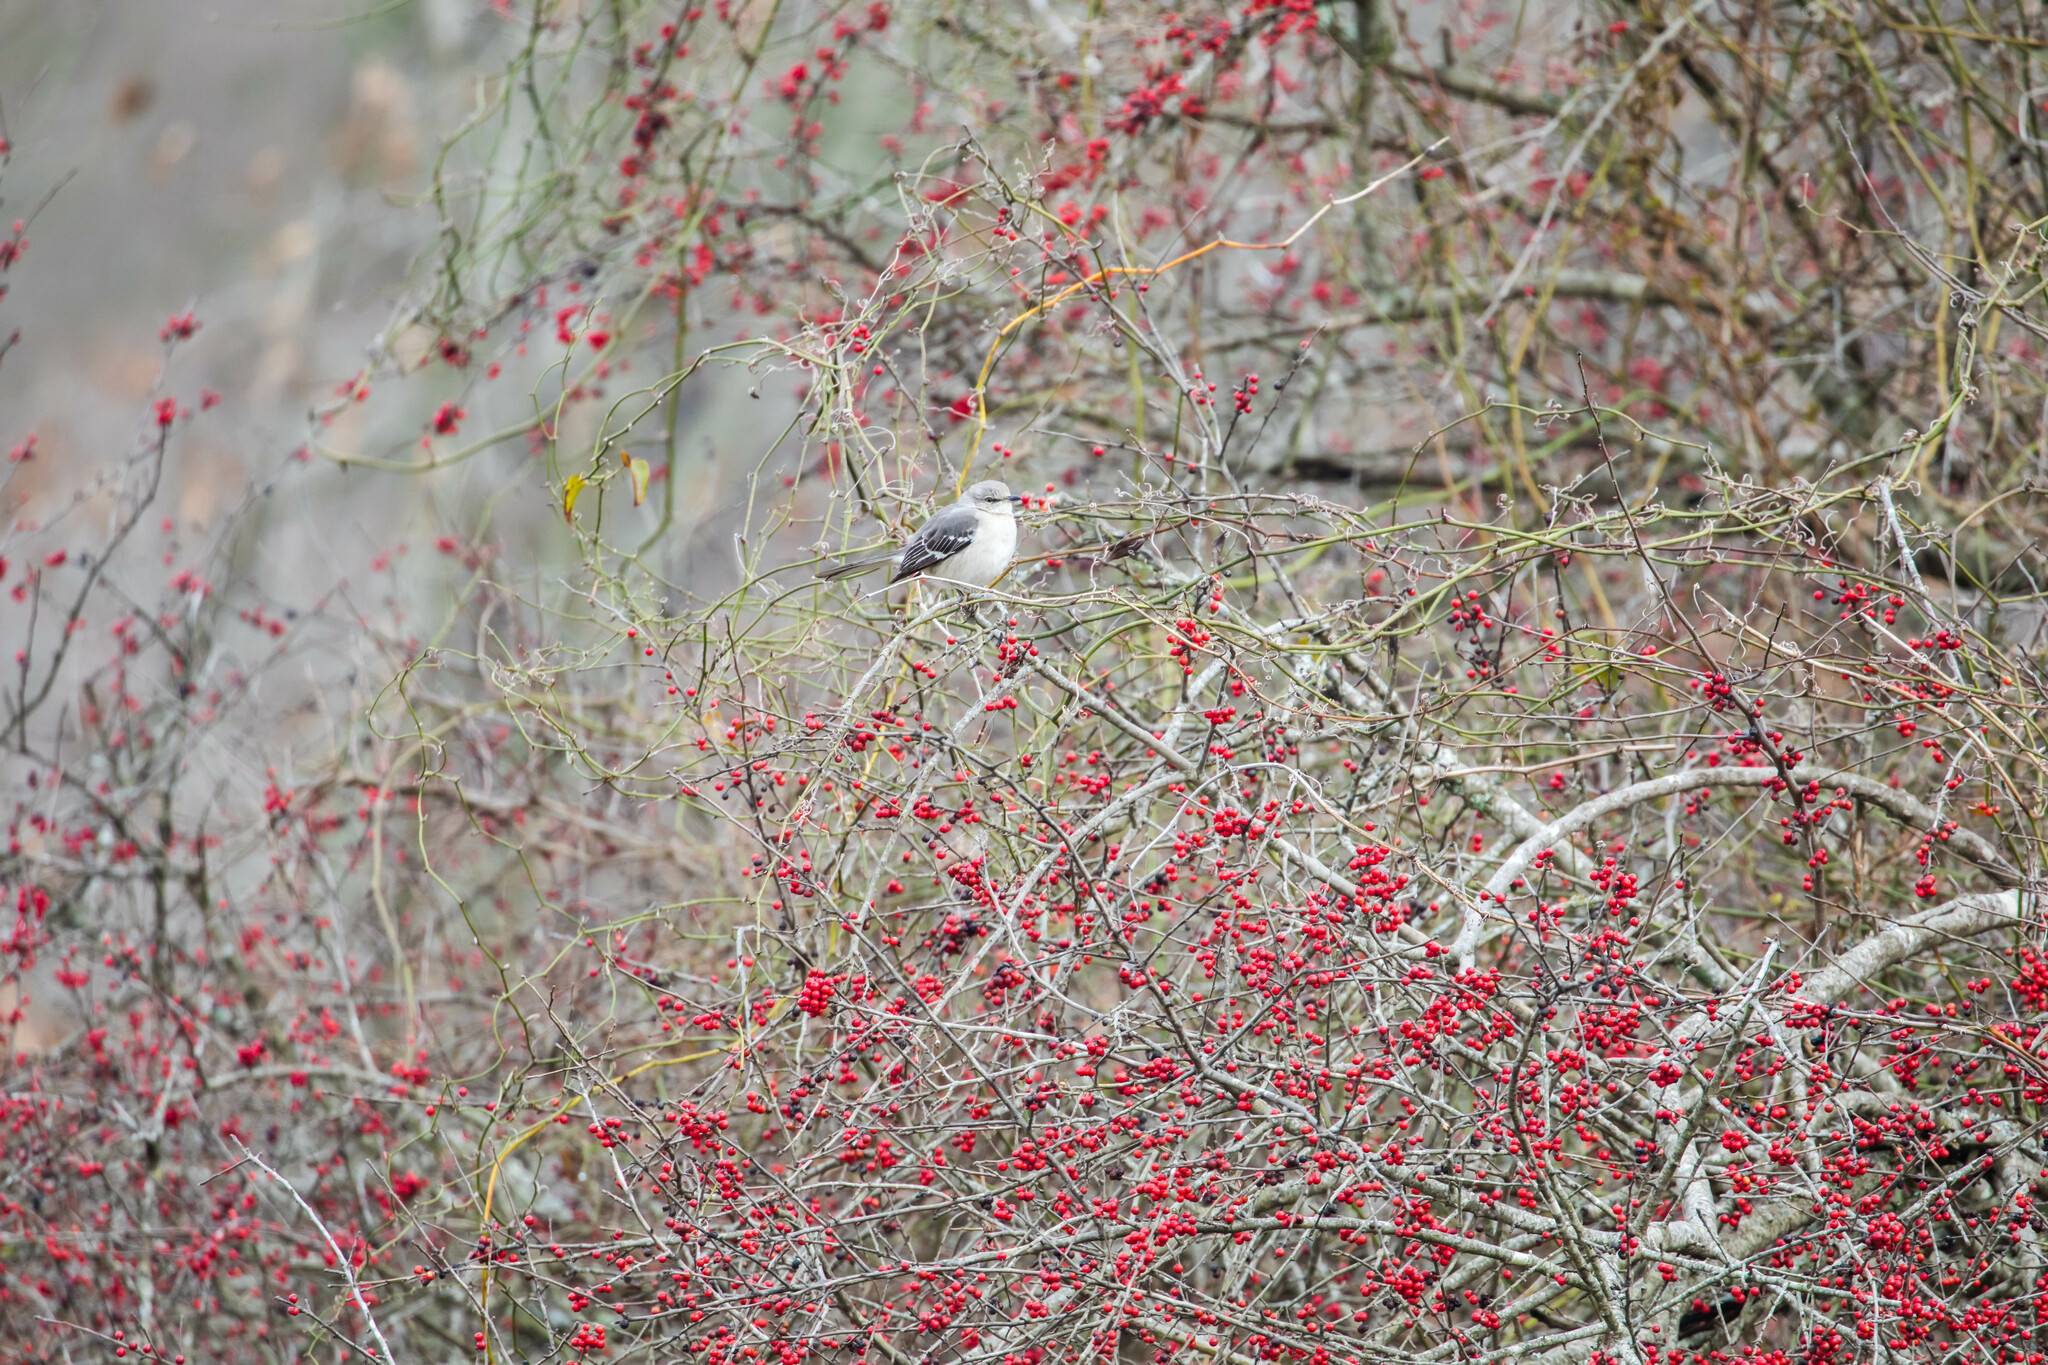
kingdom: Animalia
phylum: Chordata
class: Aves
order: Passeriformes
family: Mimidae
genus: Mimus
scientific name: Mimus polyglottos
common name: Northern mockingbird
